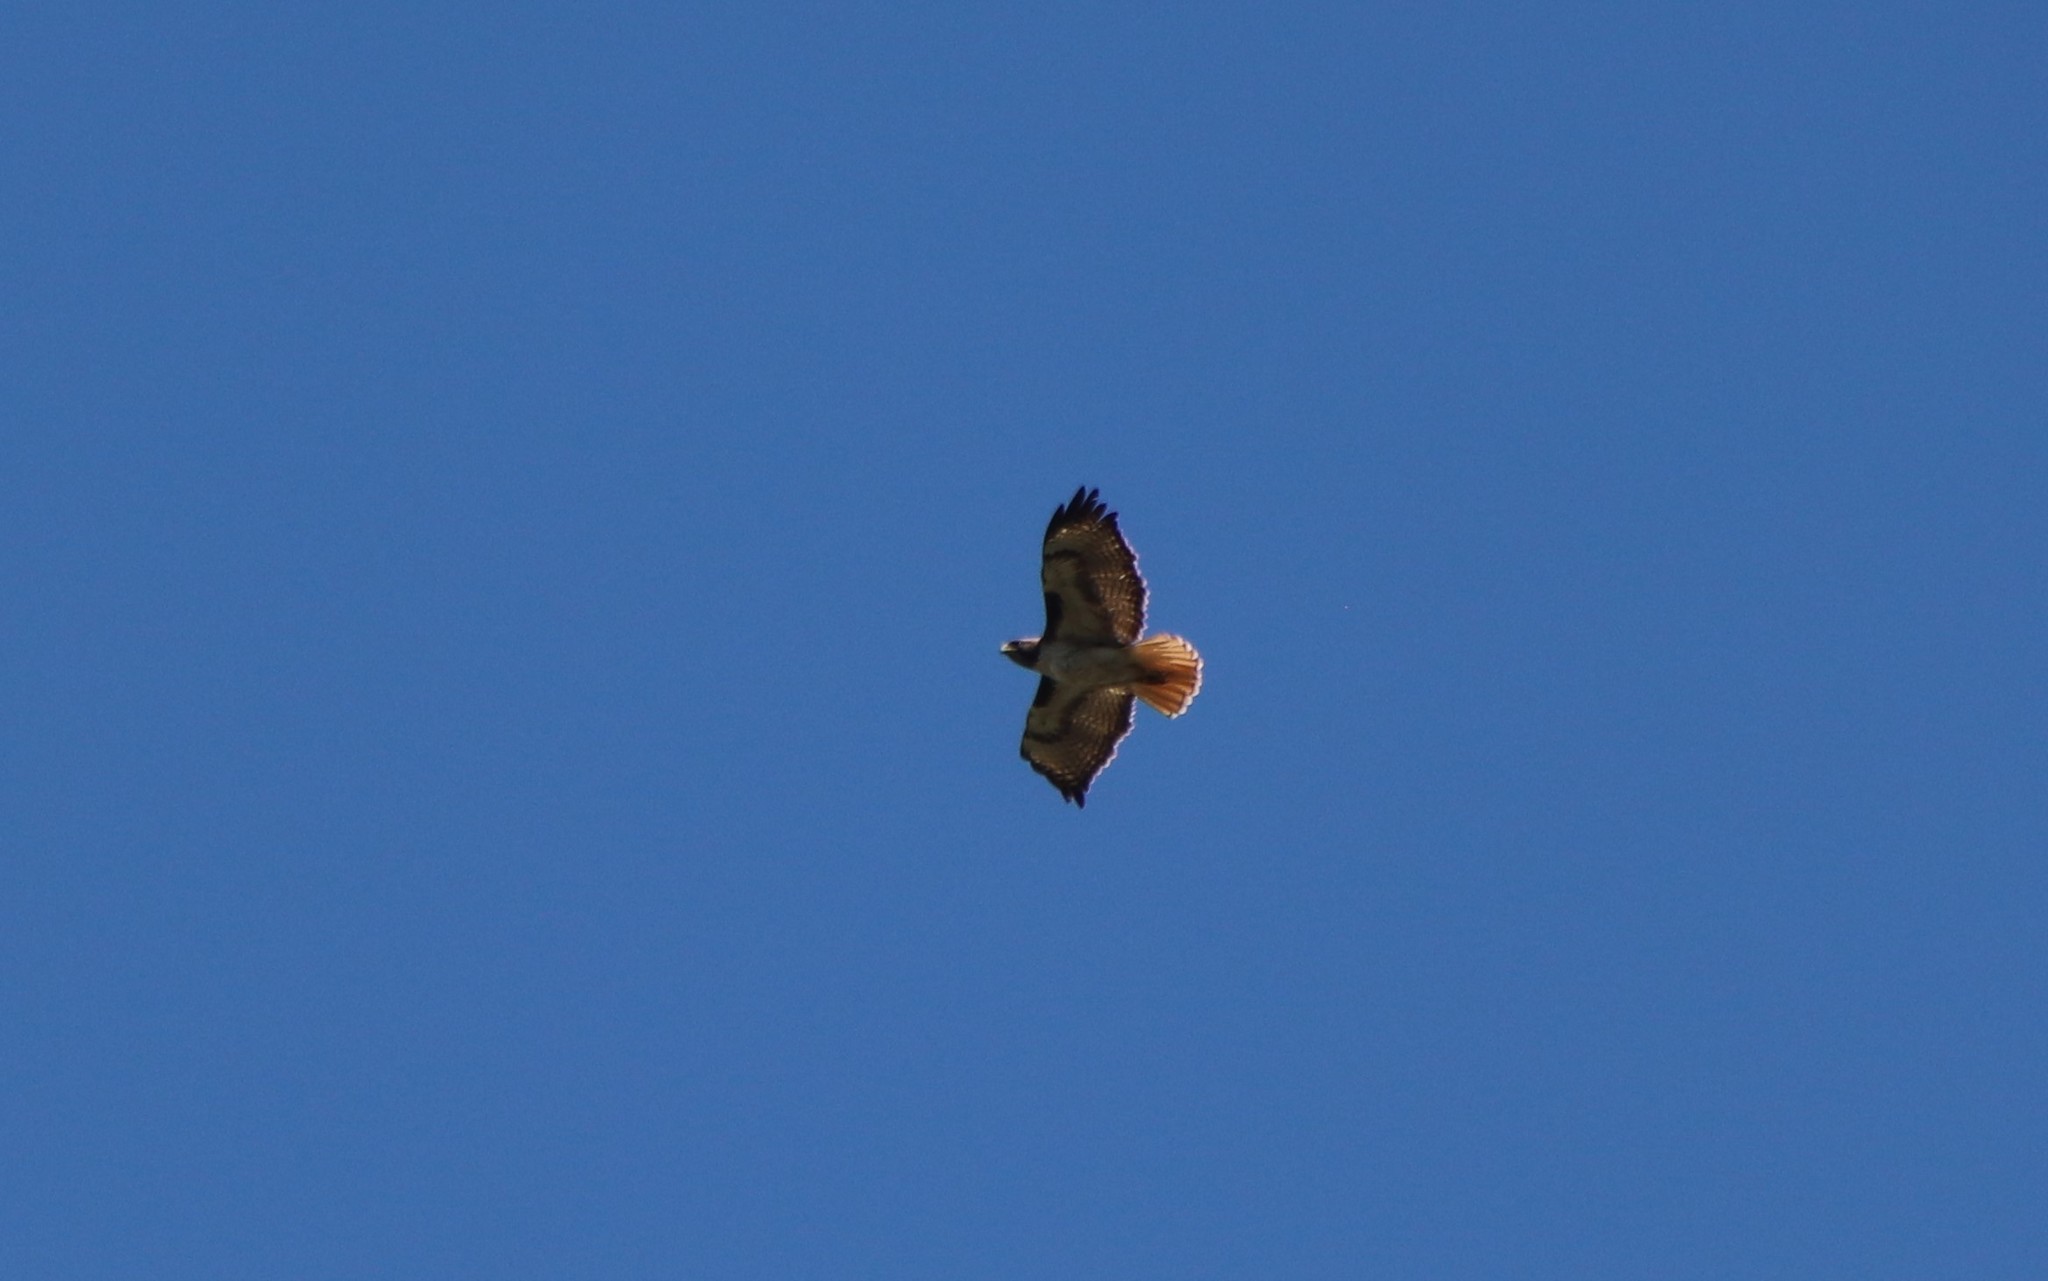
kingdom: Animalia
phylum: Chordata
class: Aves
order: Accipitriformes
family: Accipitridae
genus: Buteo
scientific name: Buteo jamaicensis
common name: Red-tailed hawk
